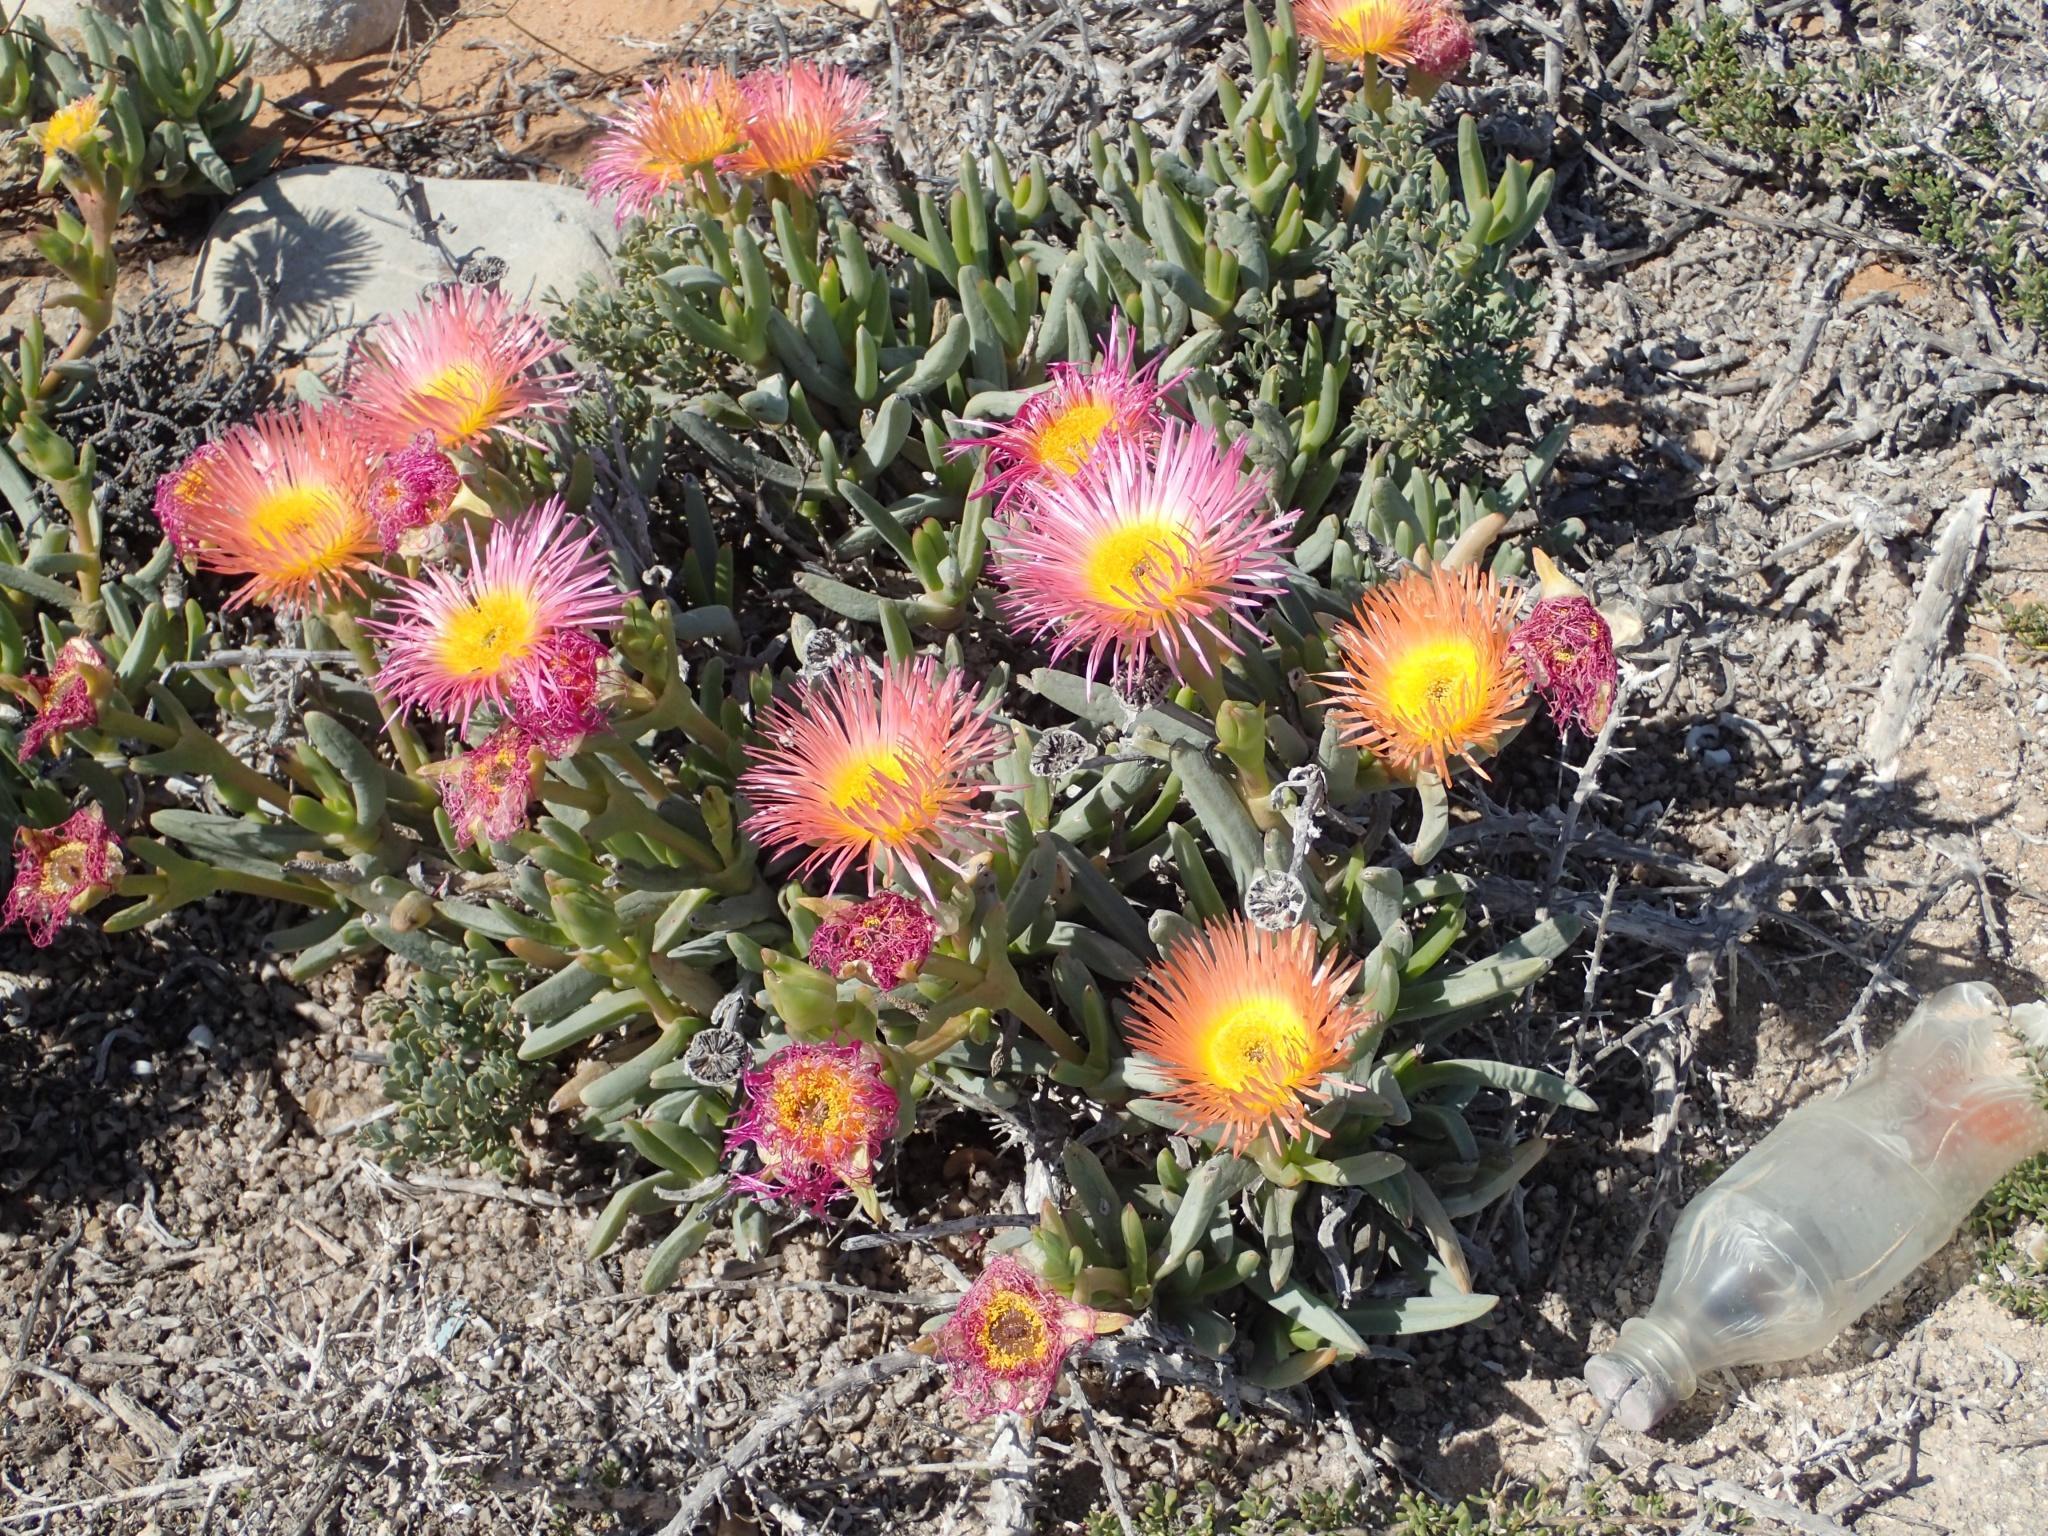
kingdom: Plantae
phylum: Tracheophyta
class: Magnoliopsida
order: Caryophyllales
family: Aizoaceae
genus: Jordaaniella
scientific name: Jordaaniella spongiosa
